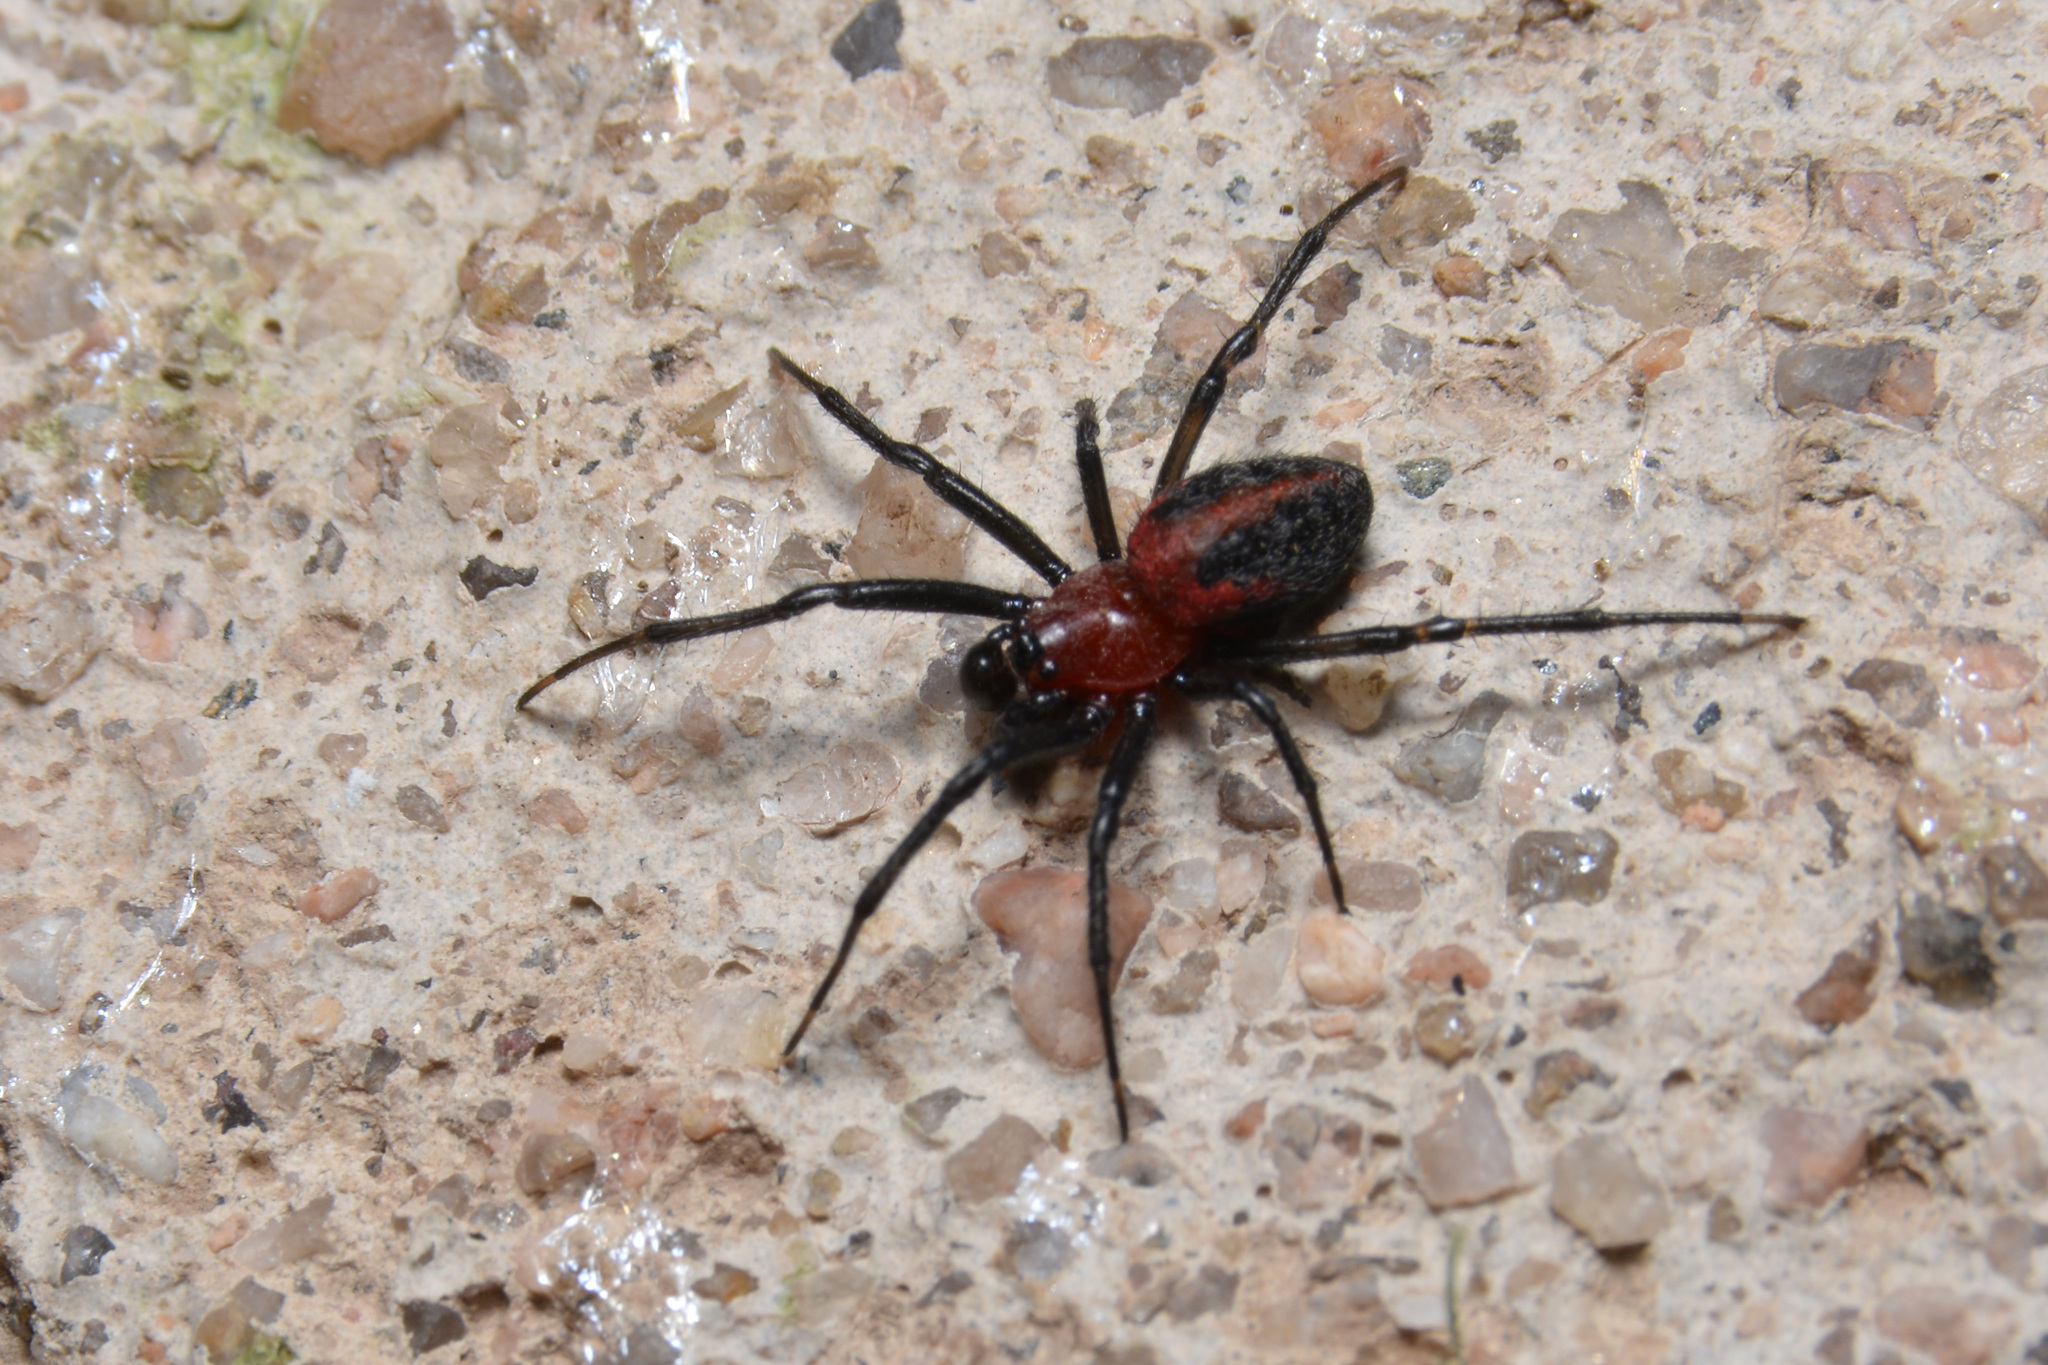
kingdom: Animalia
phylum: Arthropoda
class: Arachnida
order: Araneae
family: Araneidae
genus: Alpaida
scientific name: Alpaida carminea
